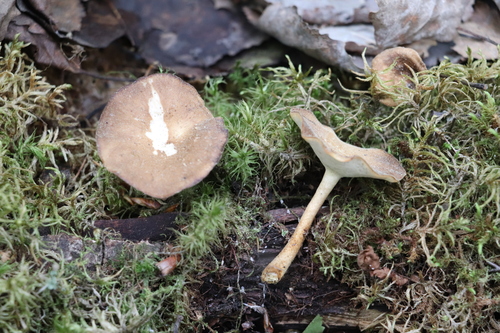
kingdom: Fungi
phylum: Basidiomycota
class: Agaricomycetes
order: Polyporales
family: Polyporaceae
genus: Lentinus
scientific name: Lentinus substrictus
